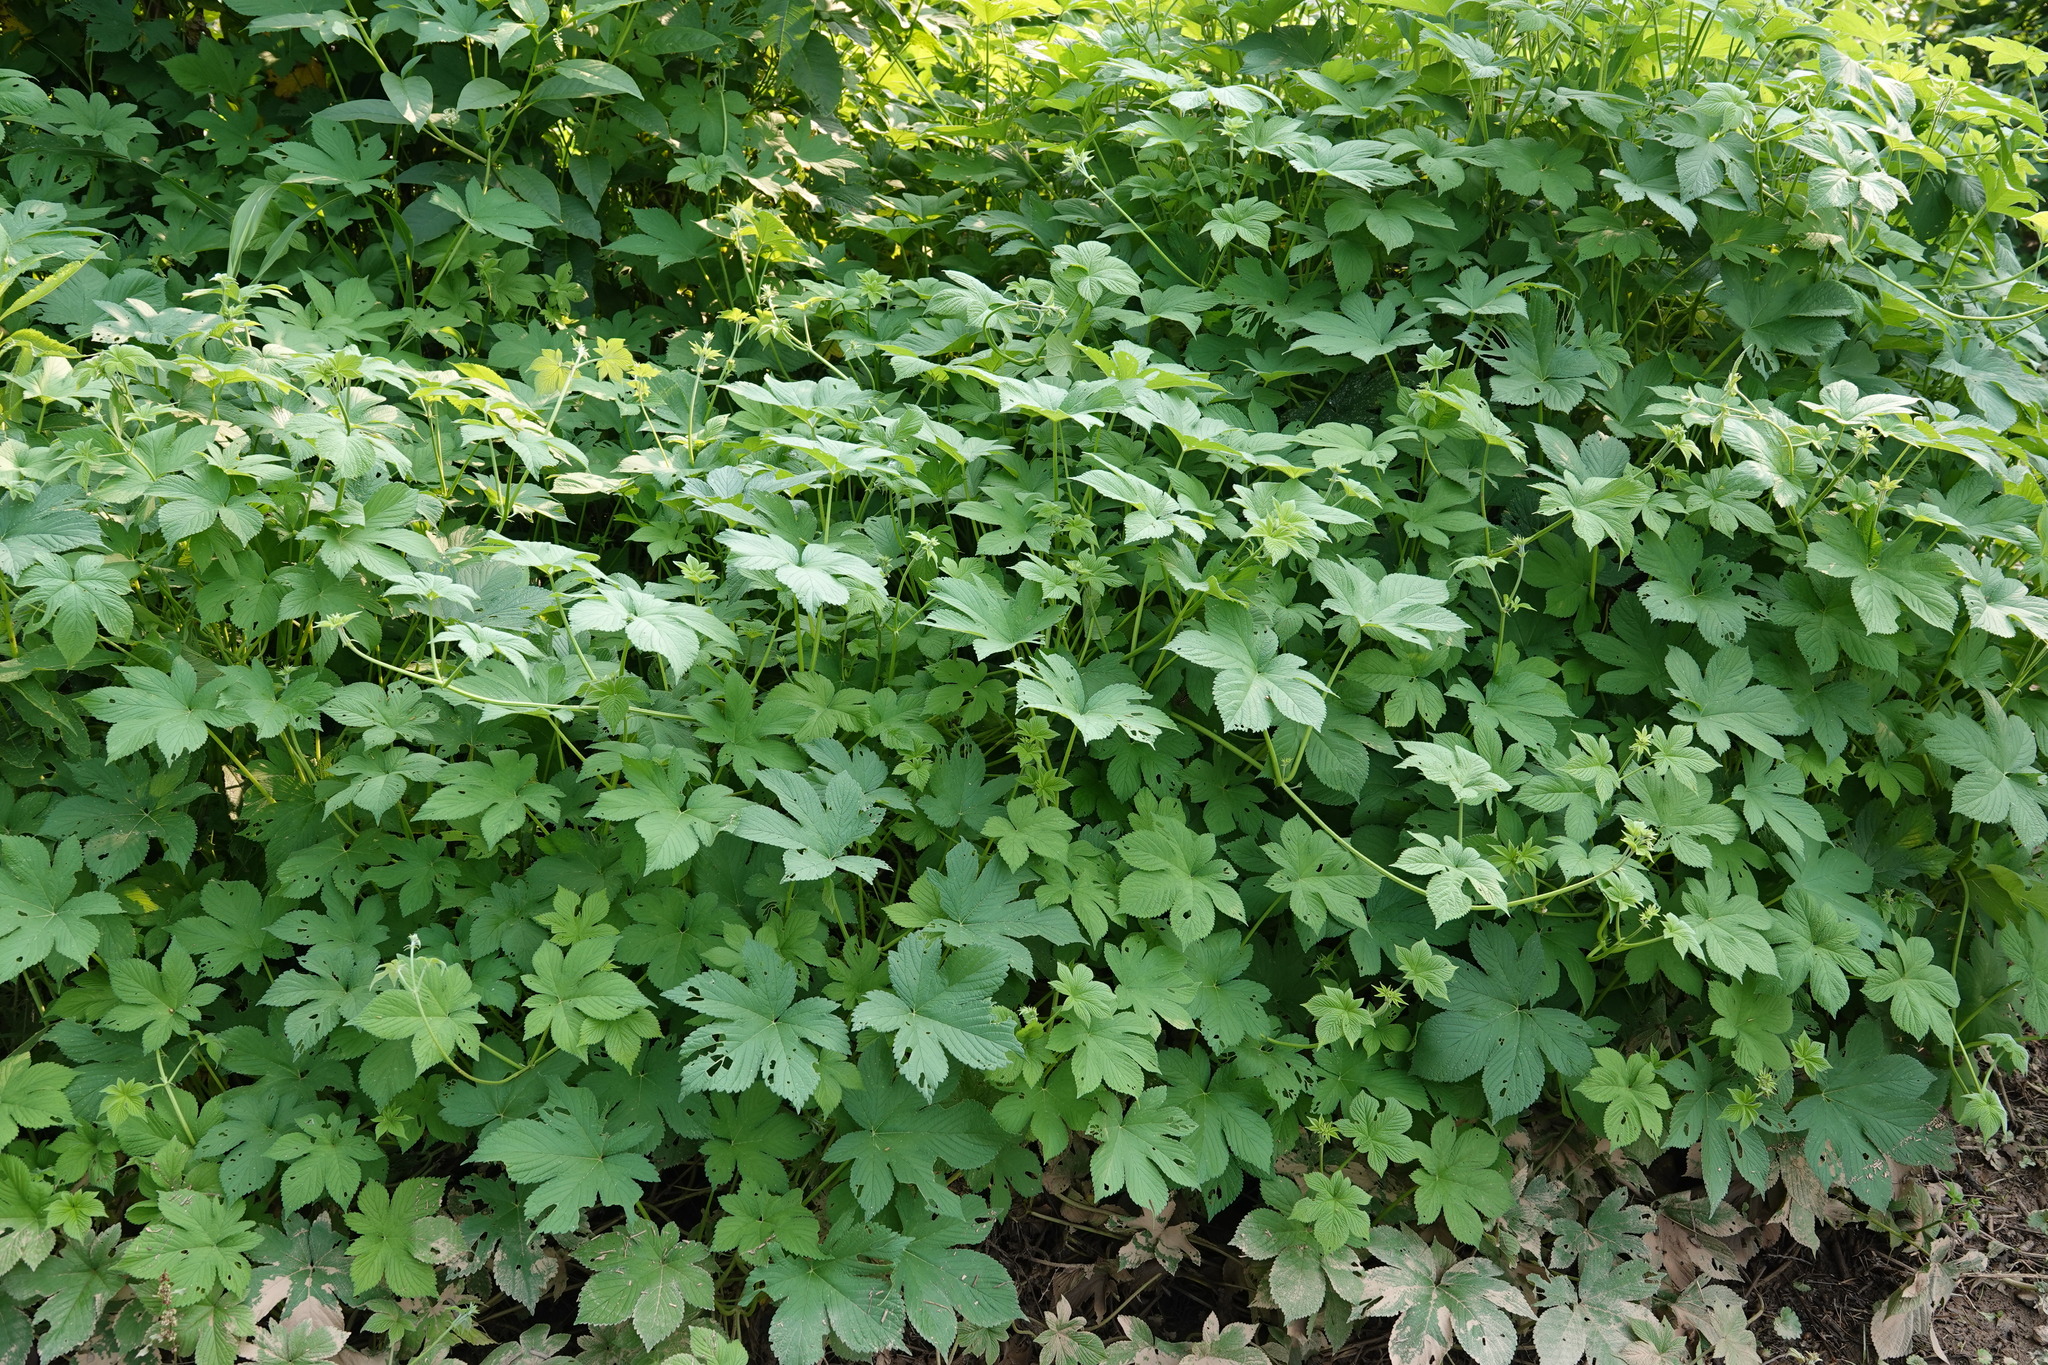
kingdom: Plantae
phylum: Tracheophyta
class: Magnoliopsida
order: Rosales
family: Cannabaceae
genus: Humulus
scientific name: Humulus scandens
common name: Japanese hop
